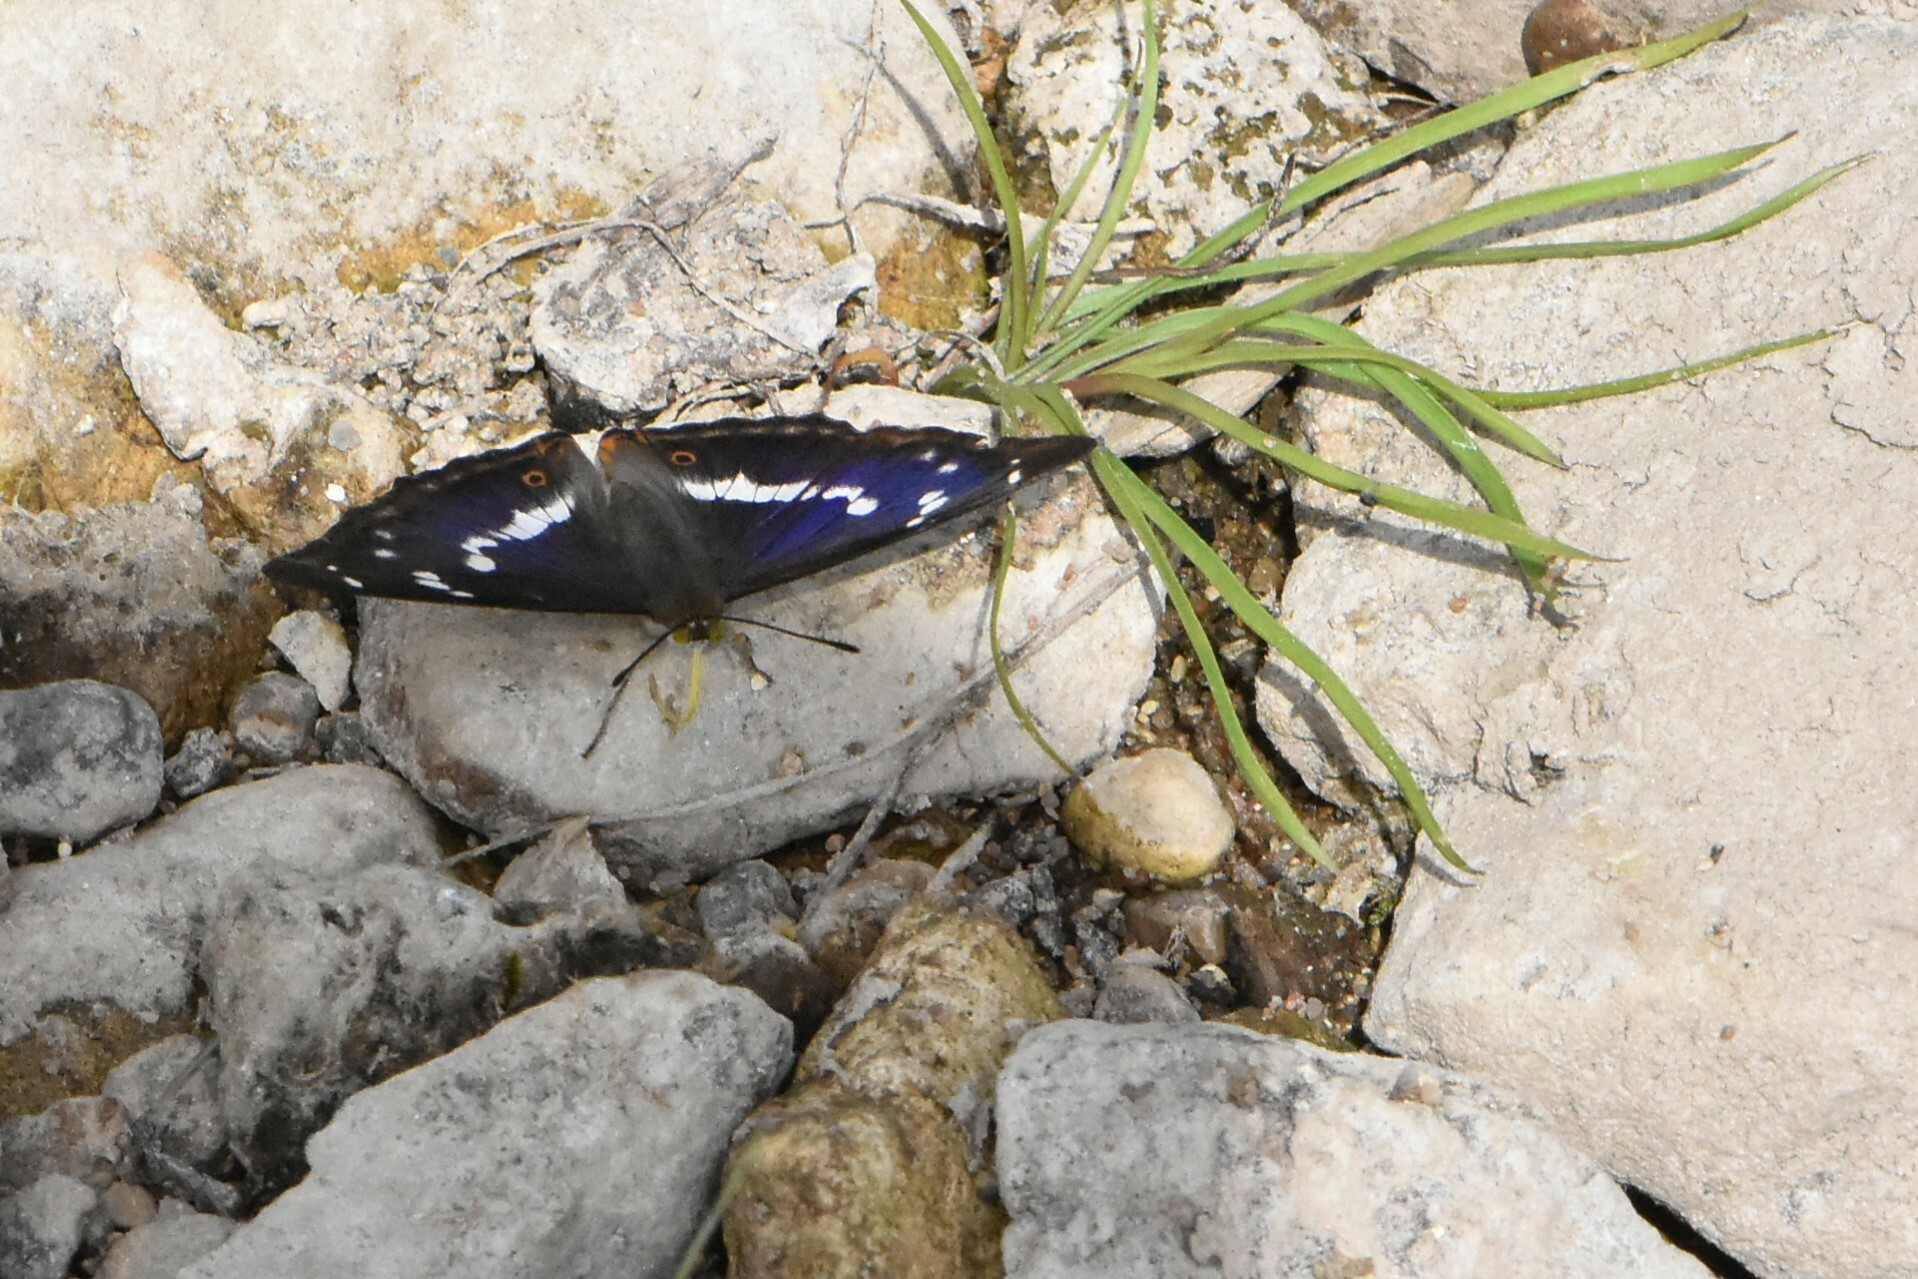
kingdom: Animalia
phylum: Arthropoda
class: Insecta
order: Lepidoptera
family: Nymphalidae
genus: Apatura
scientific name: Apatura ilia
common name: Lesser purple emperor
